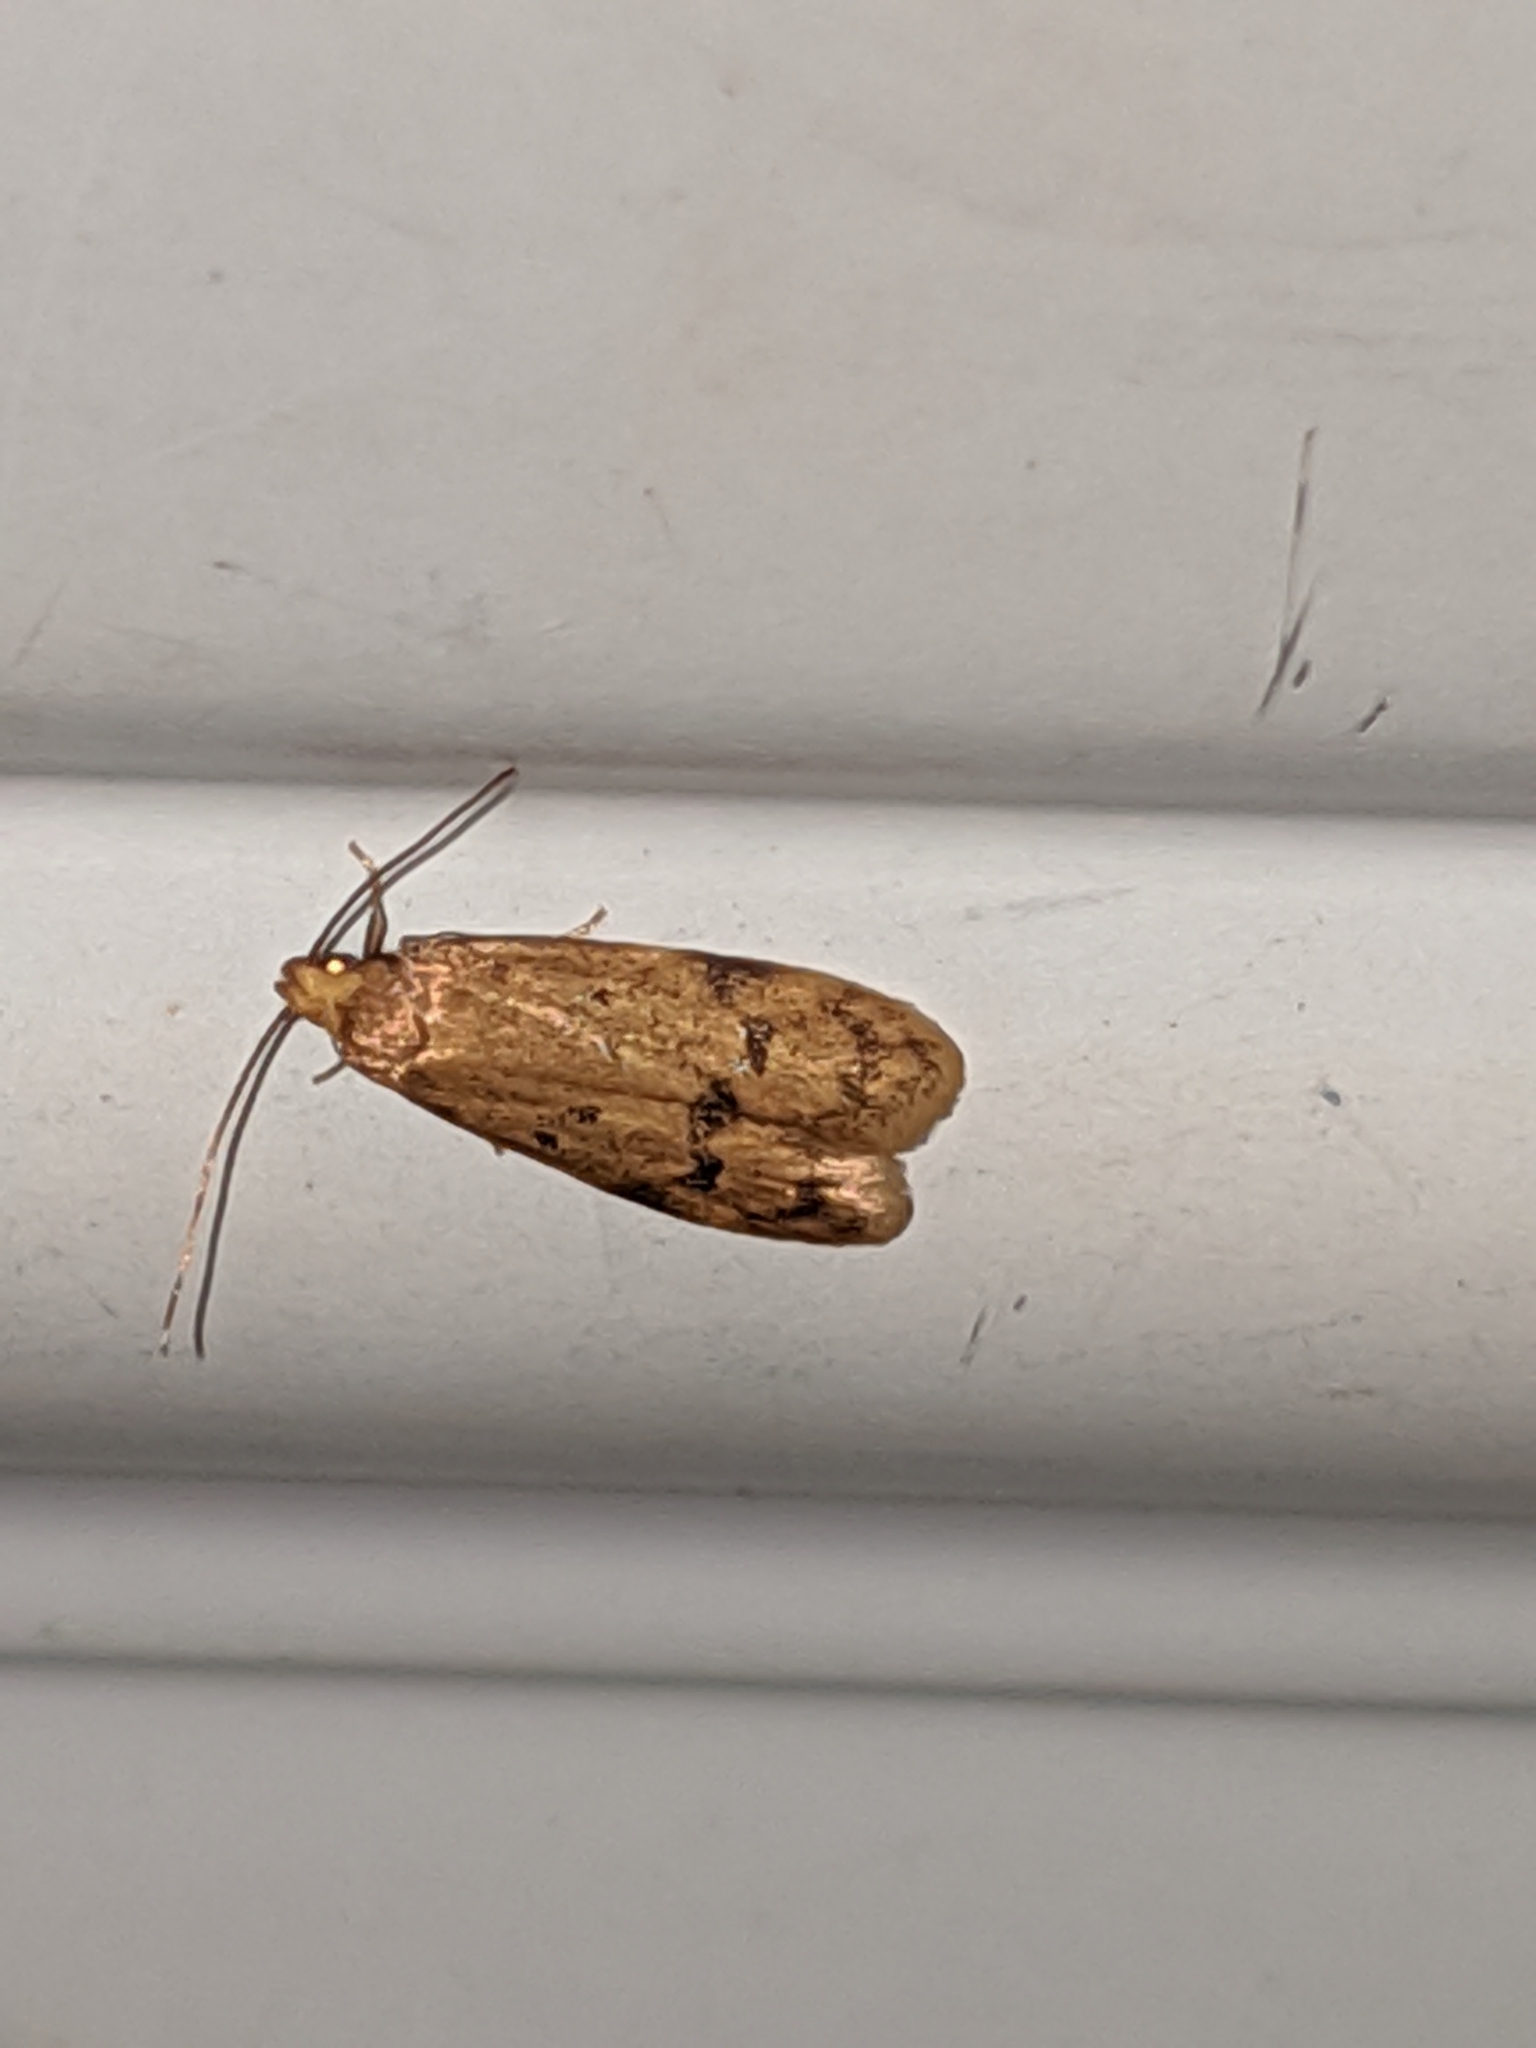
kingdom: Animalia
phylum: Arthropoda
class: Insecta
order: Lepidoptera
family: Autostichidae
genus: Gerdana
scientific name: Gerdana caritella
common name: Gerdana moth
